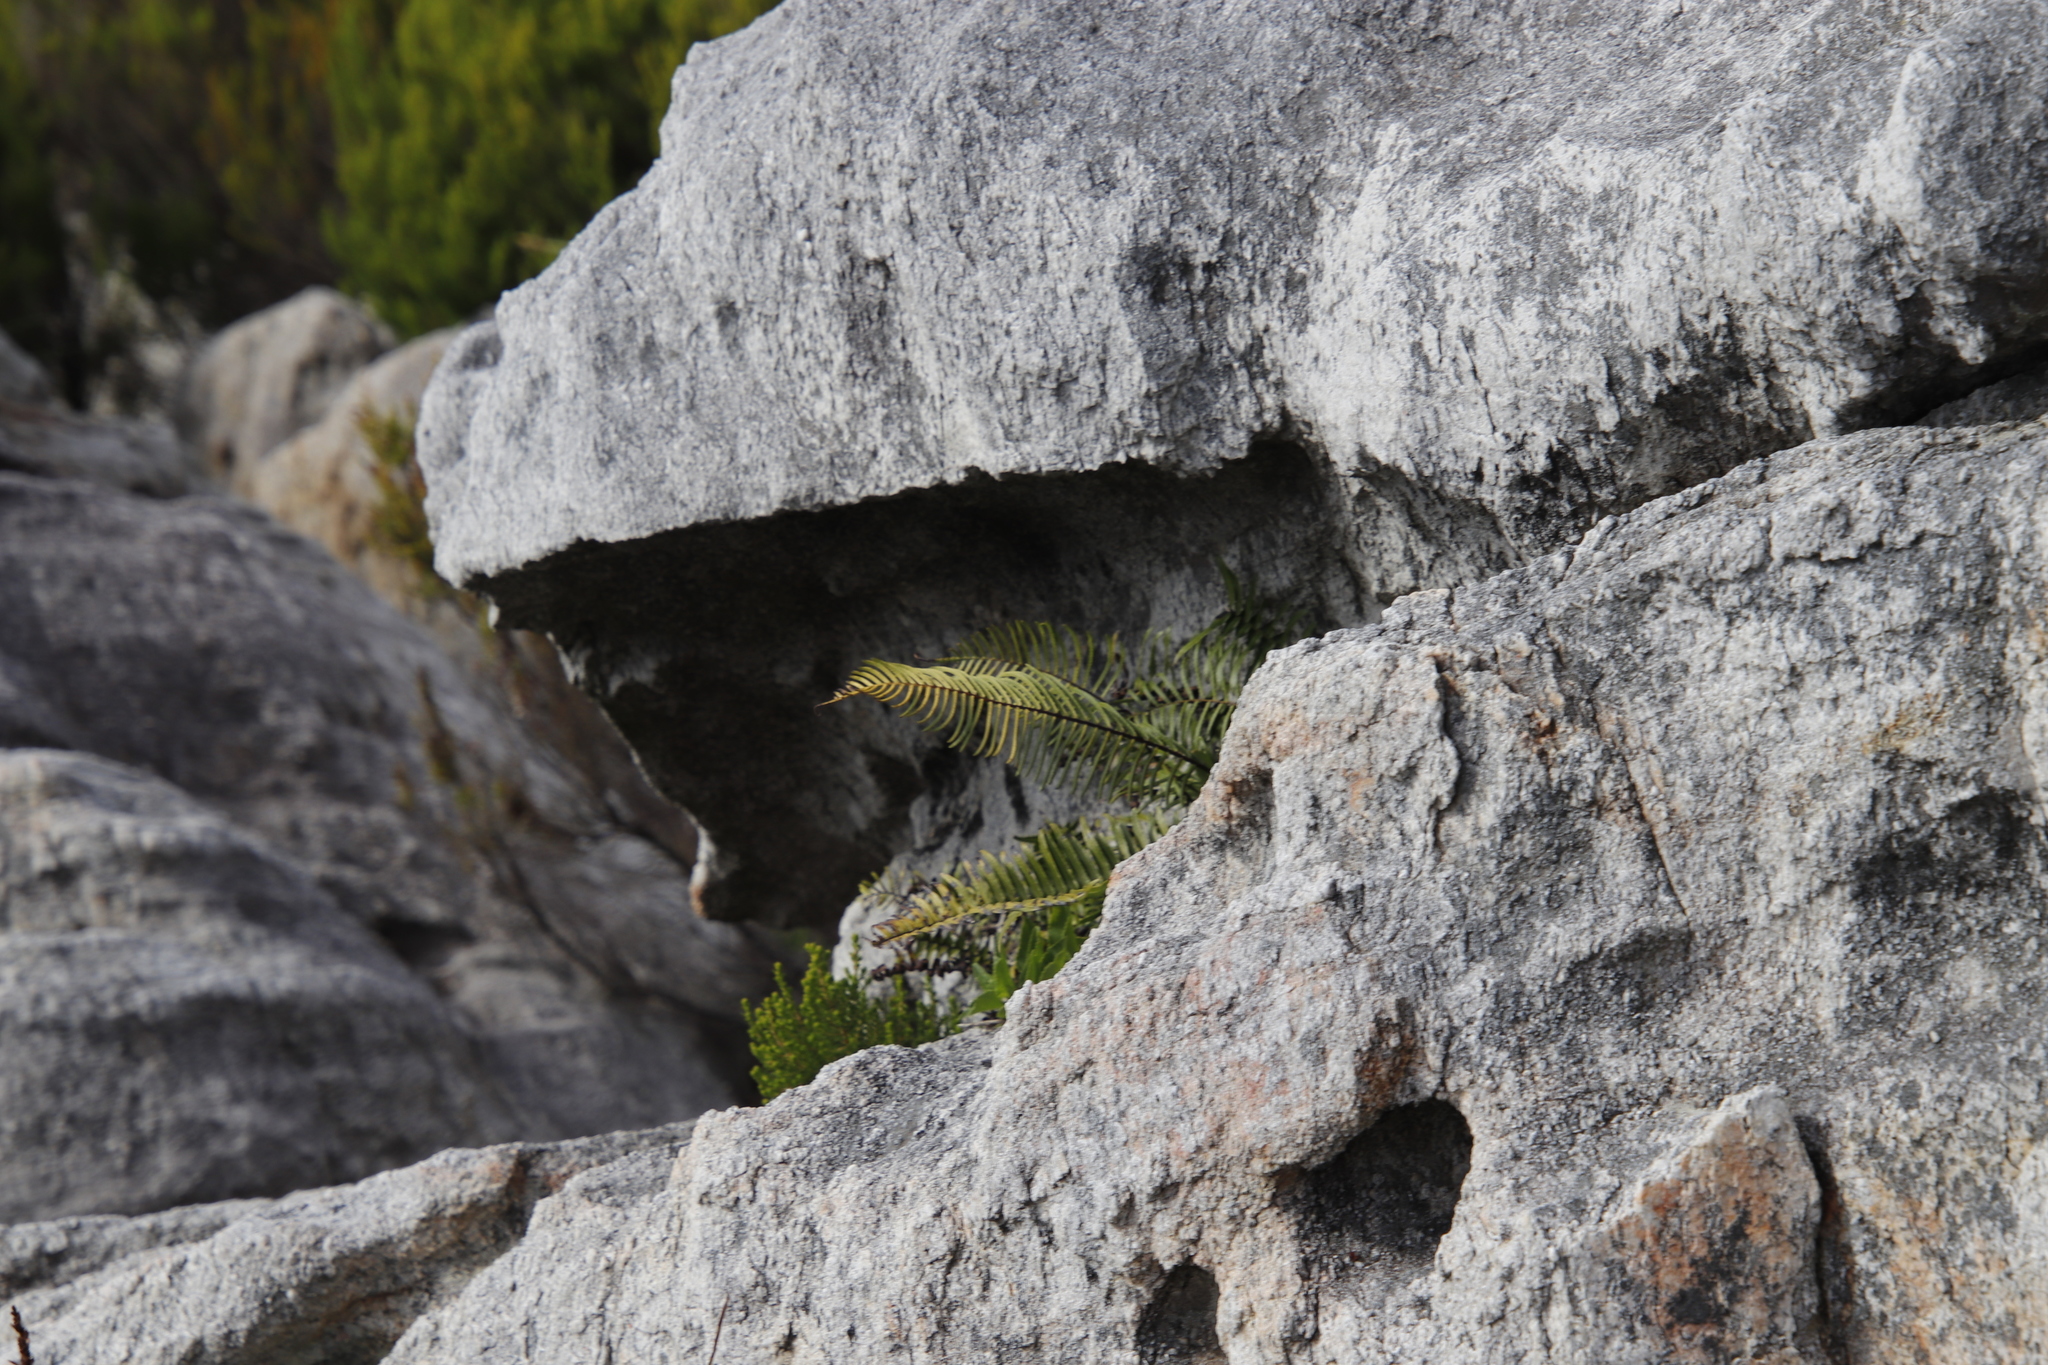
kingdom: Plantae
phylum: Tracheophyta
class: Polypodiopsida
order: Polypodiales
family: Blechnaceae
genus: Blechnum
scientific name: Blechnum punctulatum
